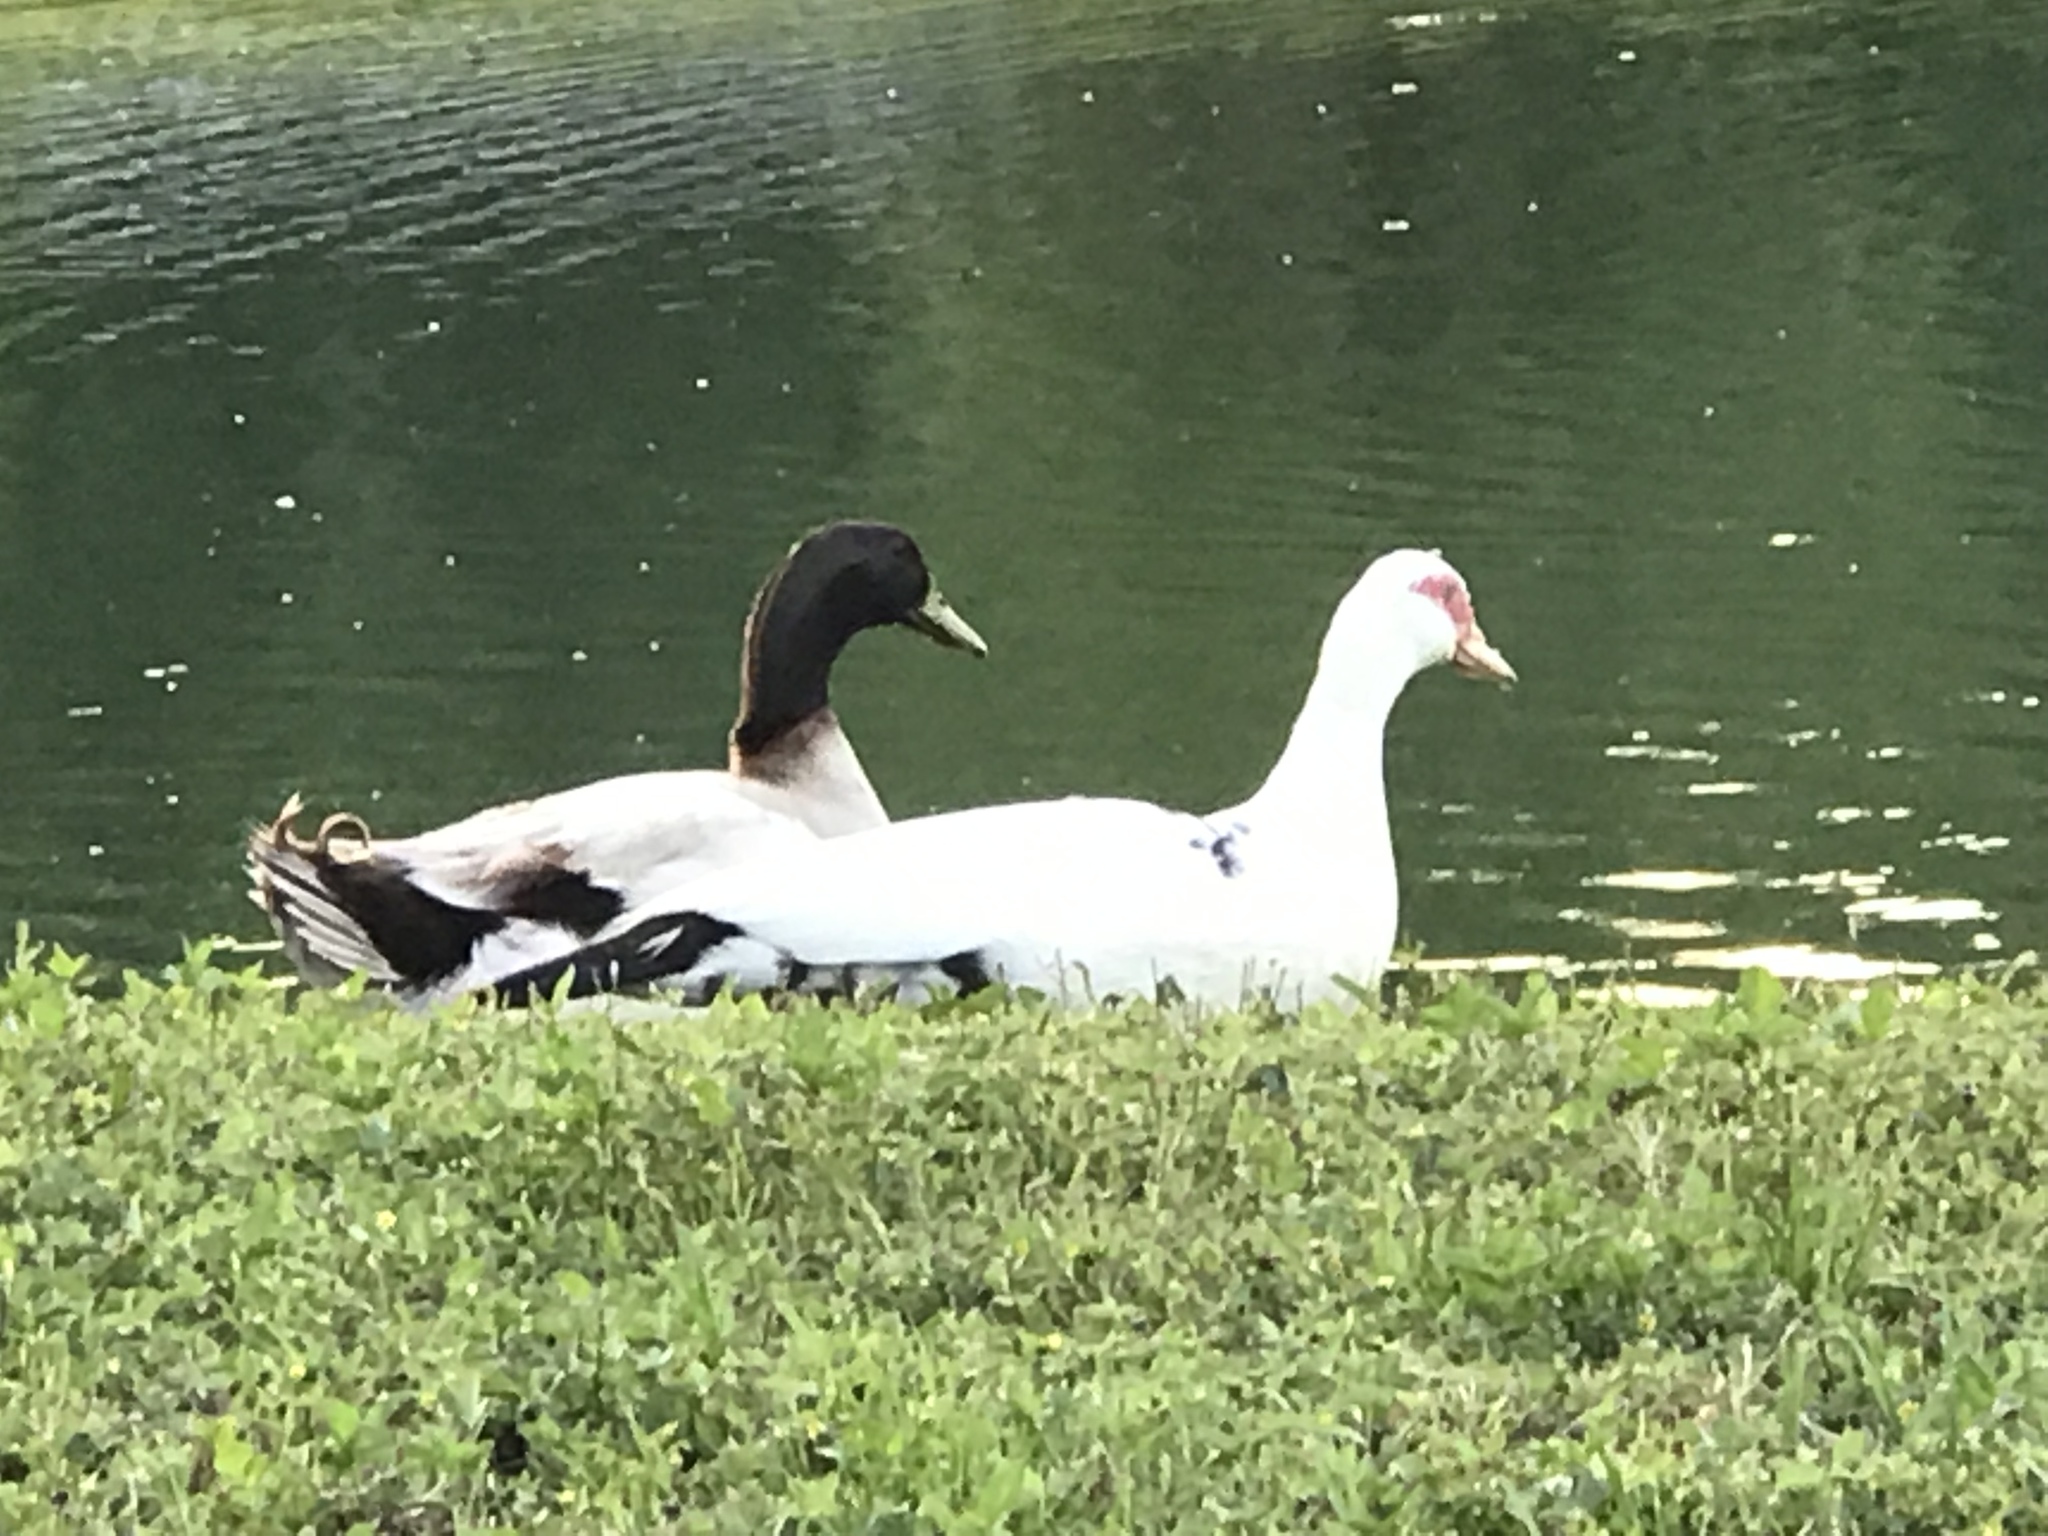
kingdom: Animalia
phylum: Chordata
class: Aves
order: Anseriformes
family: Anatidae
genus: Anas
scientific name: Anas platyrhynchos
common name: Mallard
